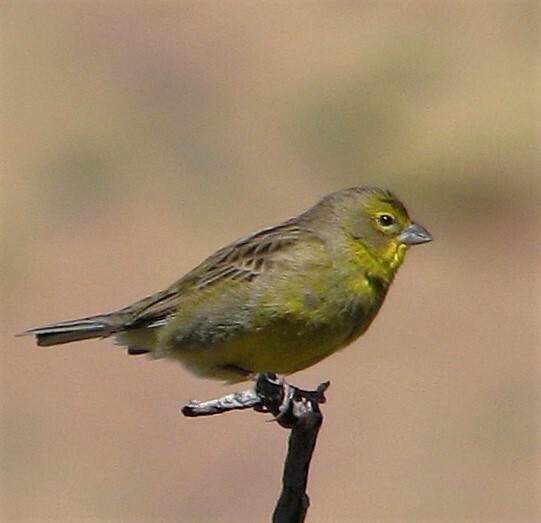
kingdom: Animalia
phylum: Chordata
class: Aves
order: Passeriformes
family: Thraupidae
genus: Sicalis
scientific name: Sicalis luteola
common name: Grassland yellow-finch
